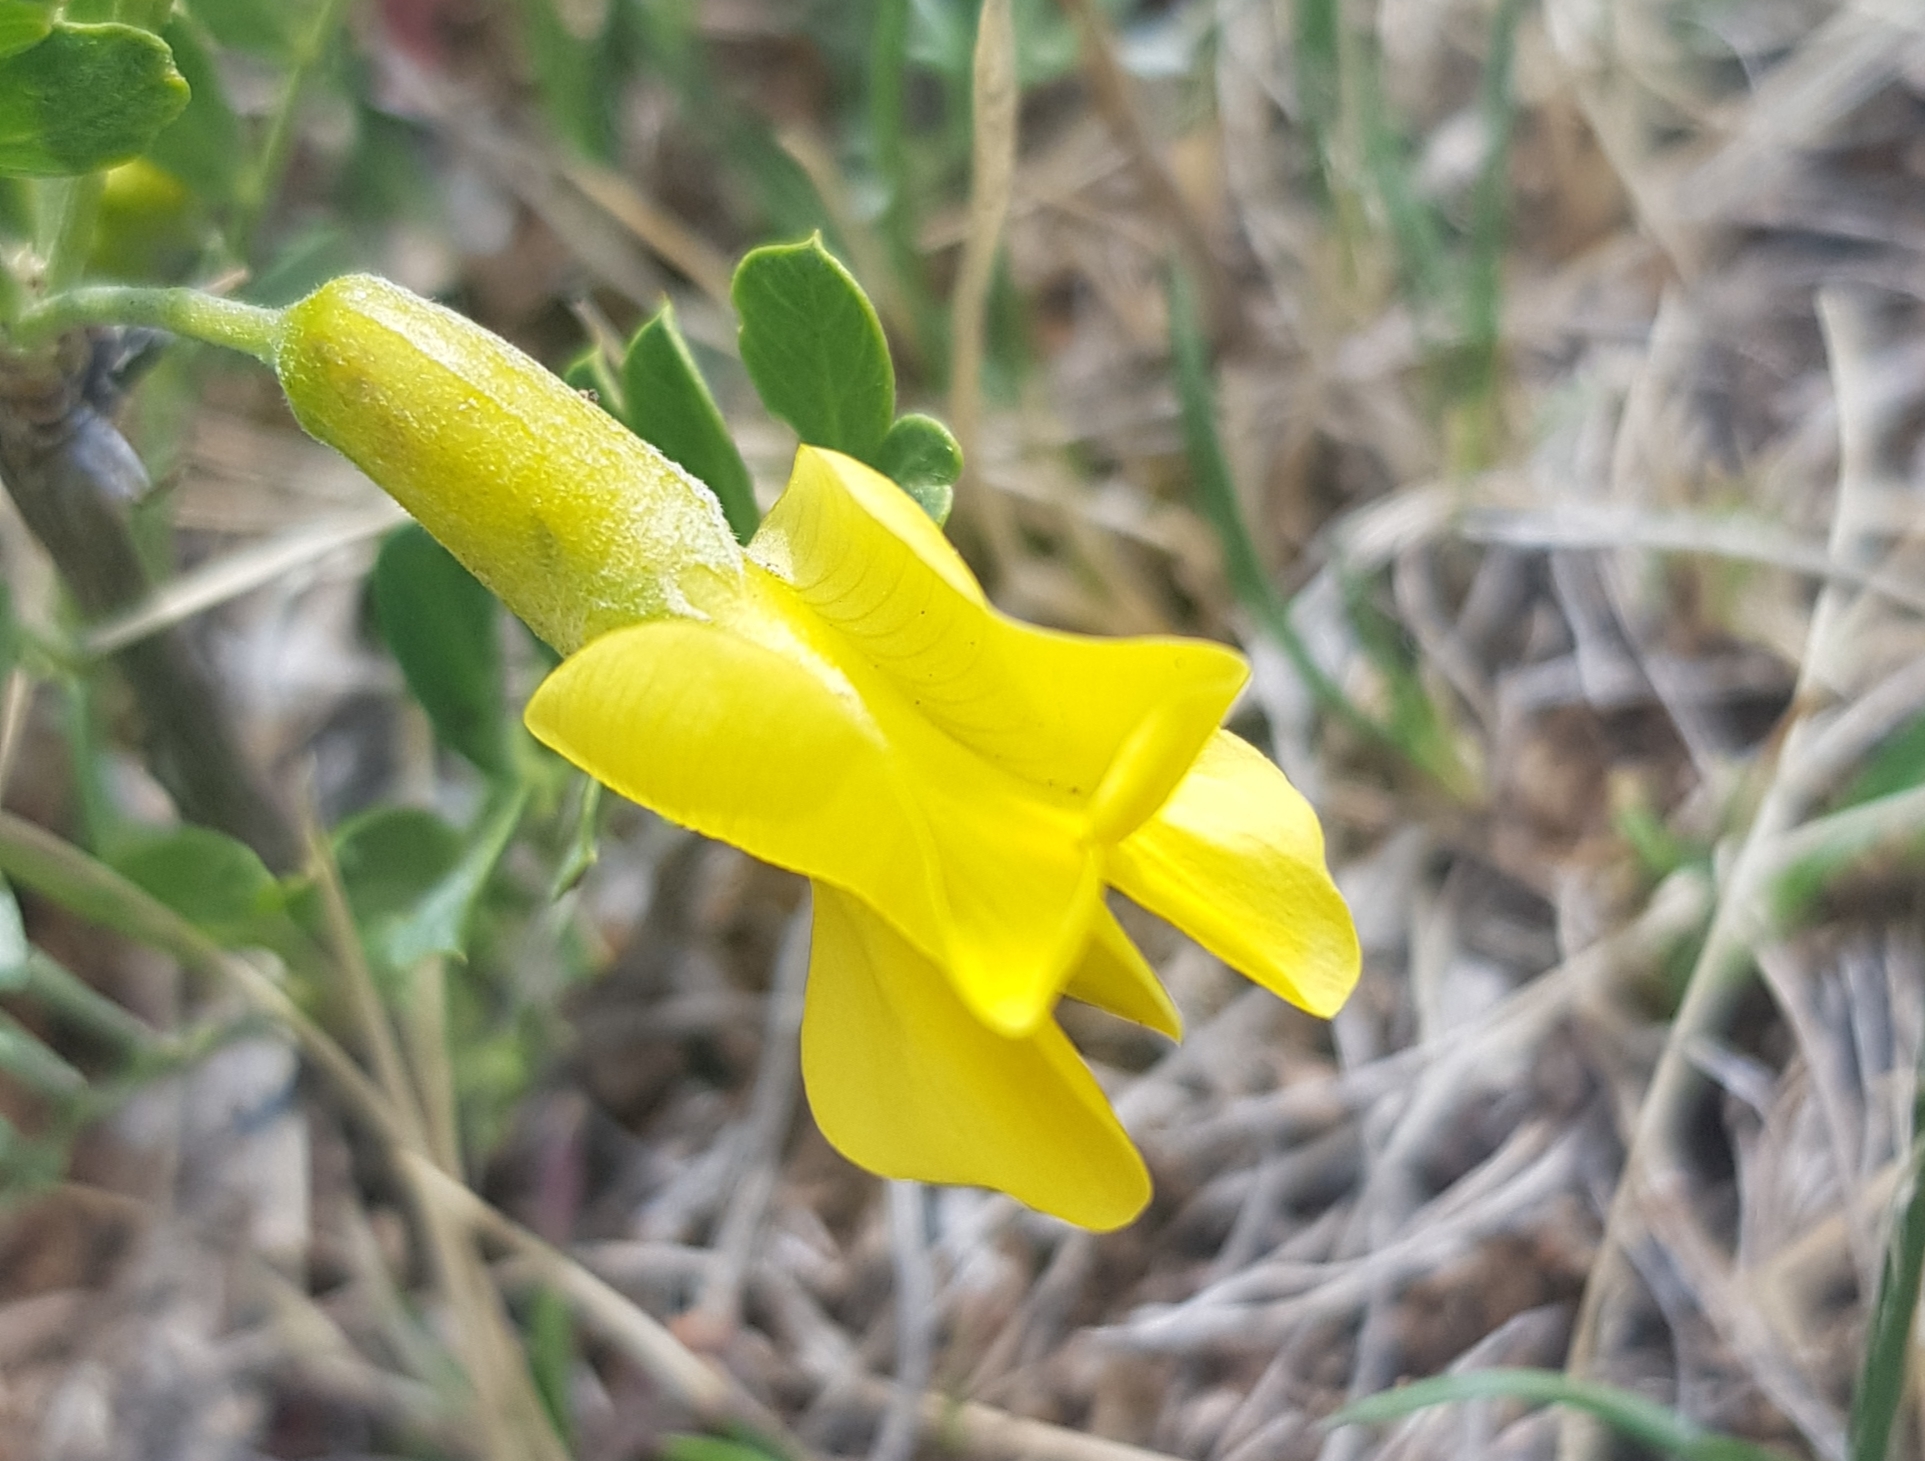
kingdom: Plantae
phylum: Tracheophyta
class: Magnoliopsida
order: Fabales
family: Fabaceae
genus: Caragana
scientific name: Caragana microphylla
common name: Littleleaf peashrub
